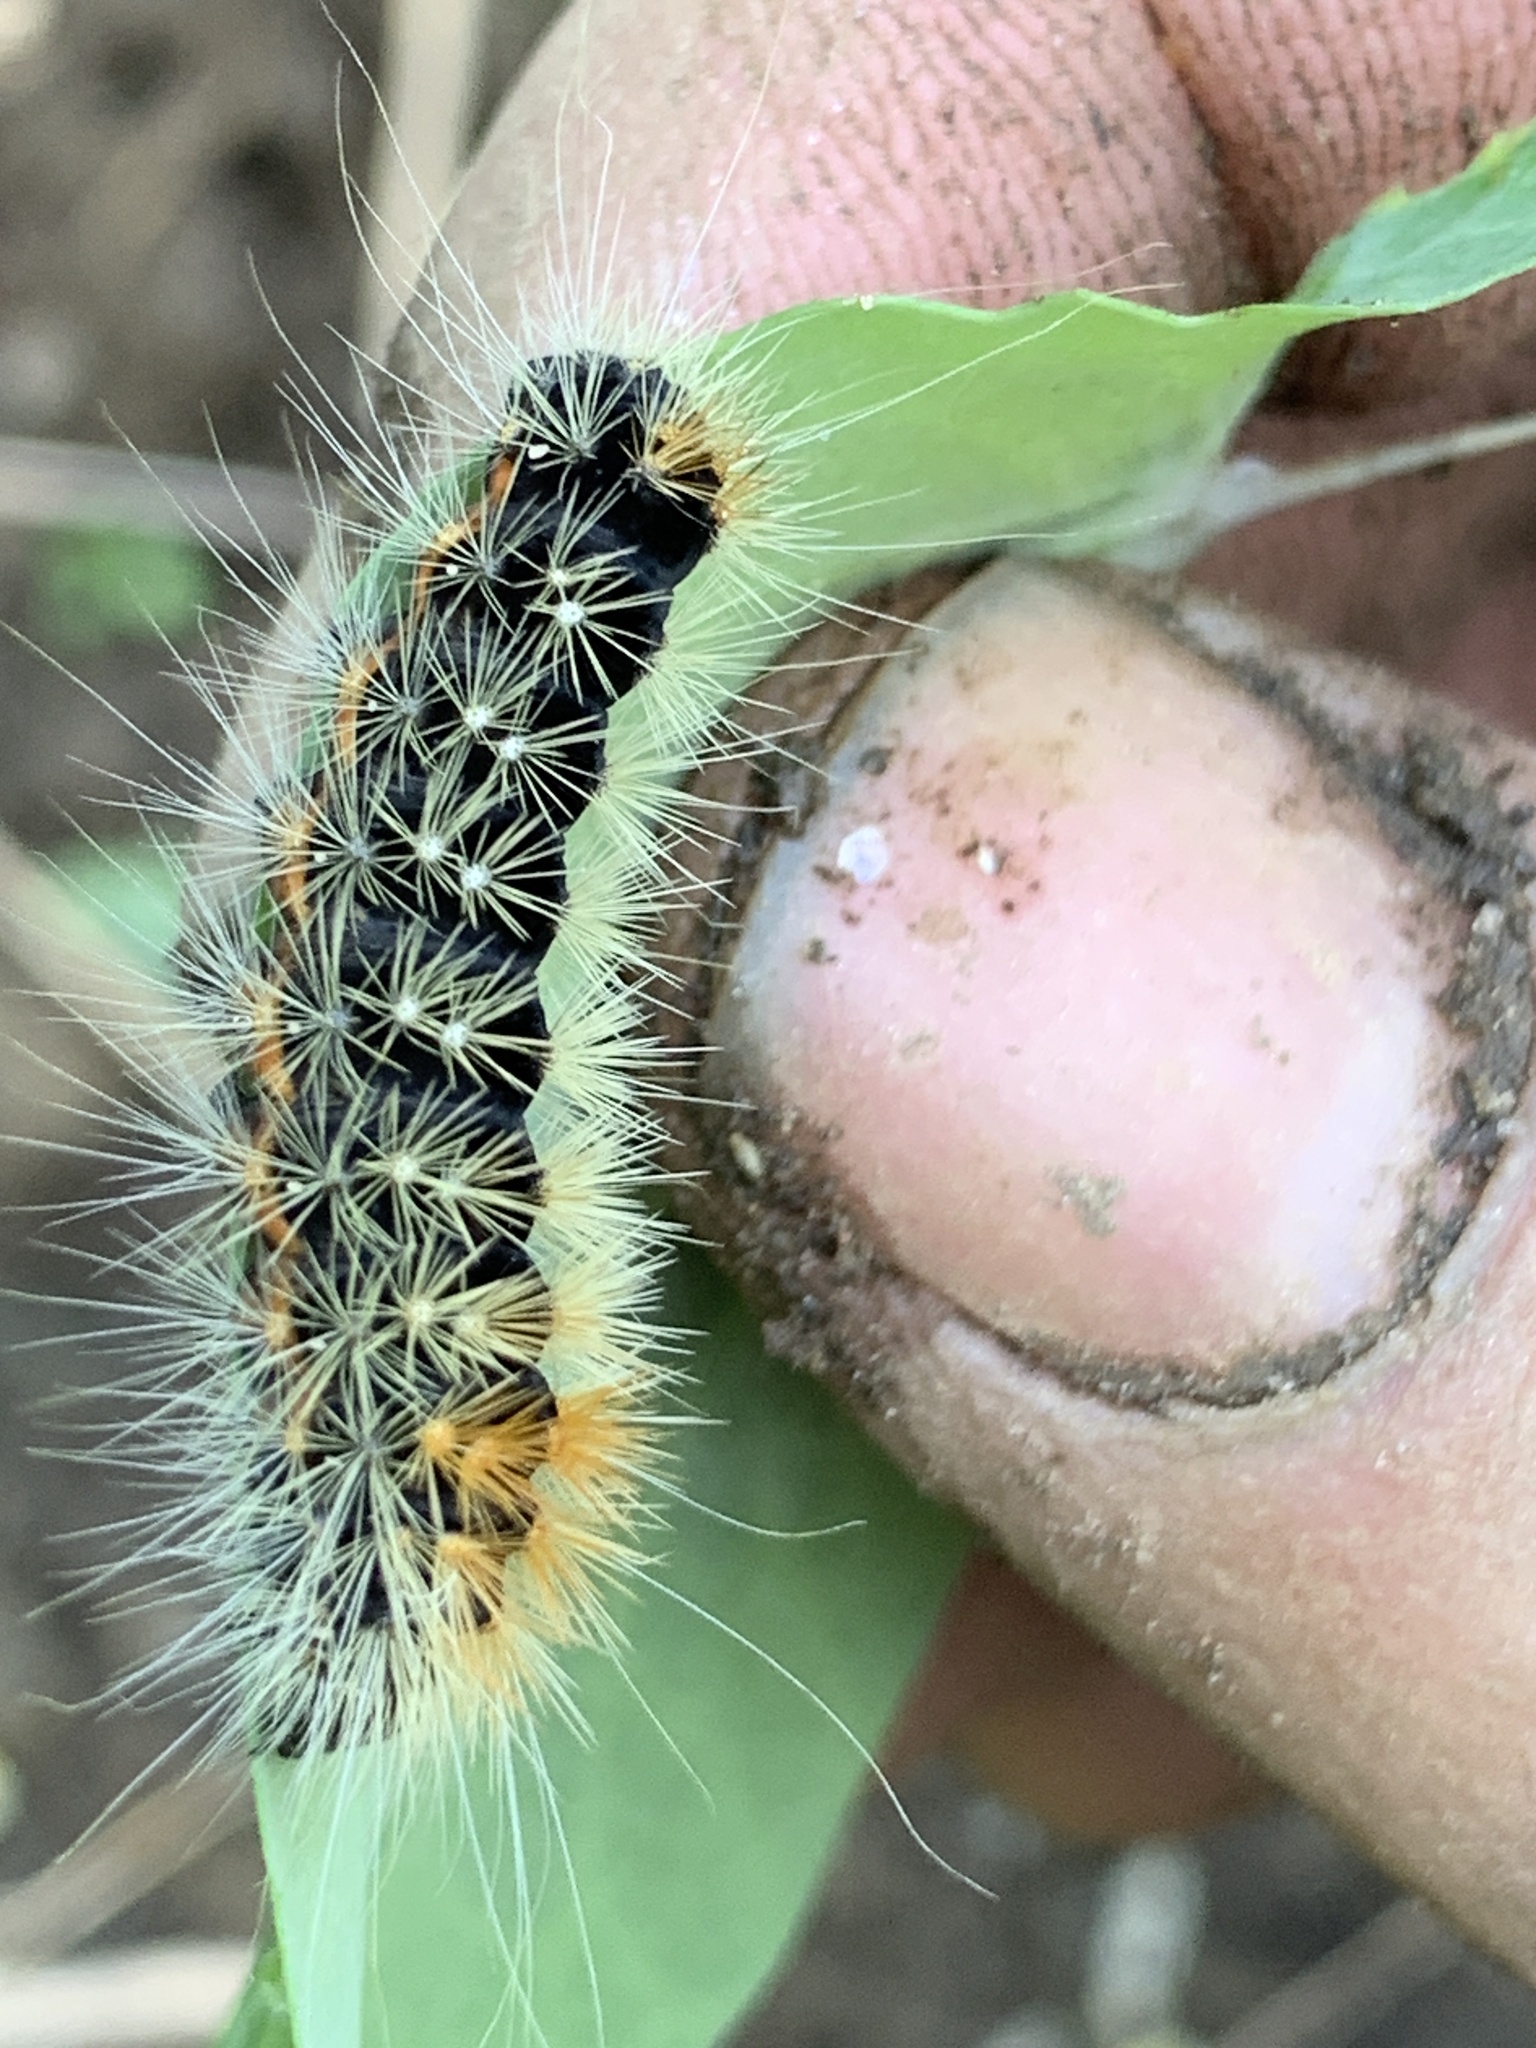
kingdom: Animalia
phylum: Arthropoda
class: Insecta
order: Lepidoptera
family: Noctuidae
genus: Acronicta
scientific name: Acronicta impressa
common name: Impressed dagger
